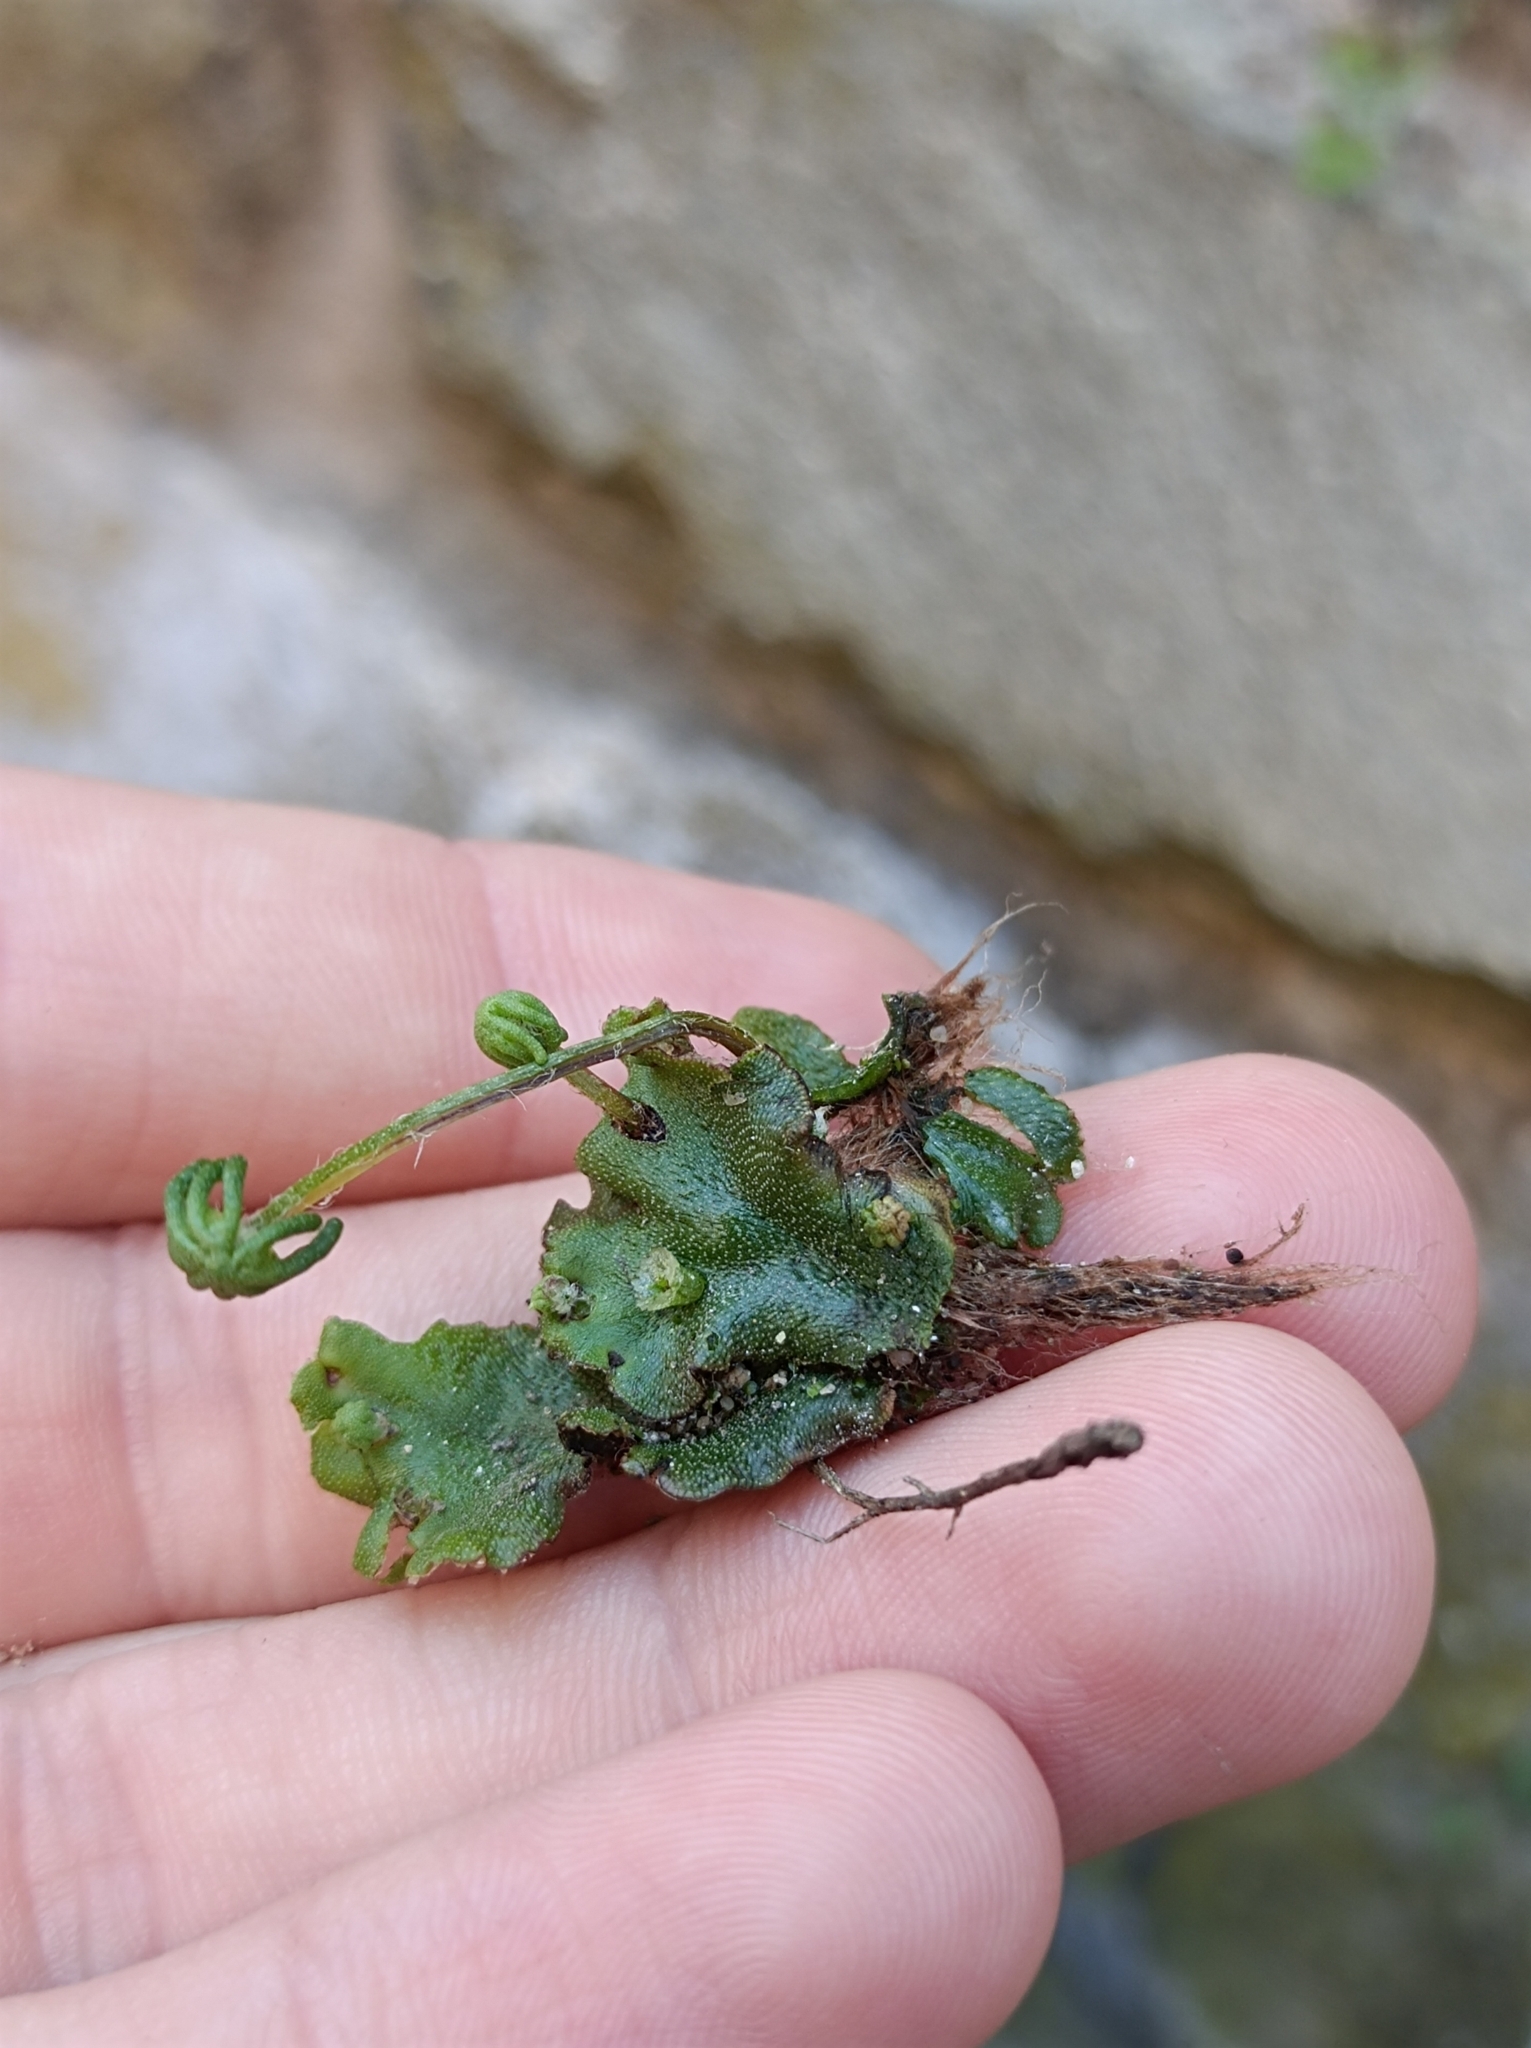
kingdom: Plantae
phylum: Tracheophyta
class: Polypodiopsida
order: Polypodiales
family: Aspleniaceae
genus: Asplenium
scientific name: Asplenium ruta-muraria
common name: Wall-rue
